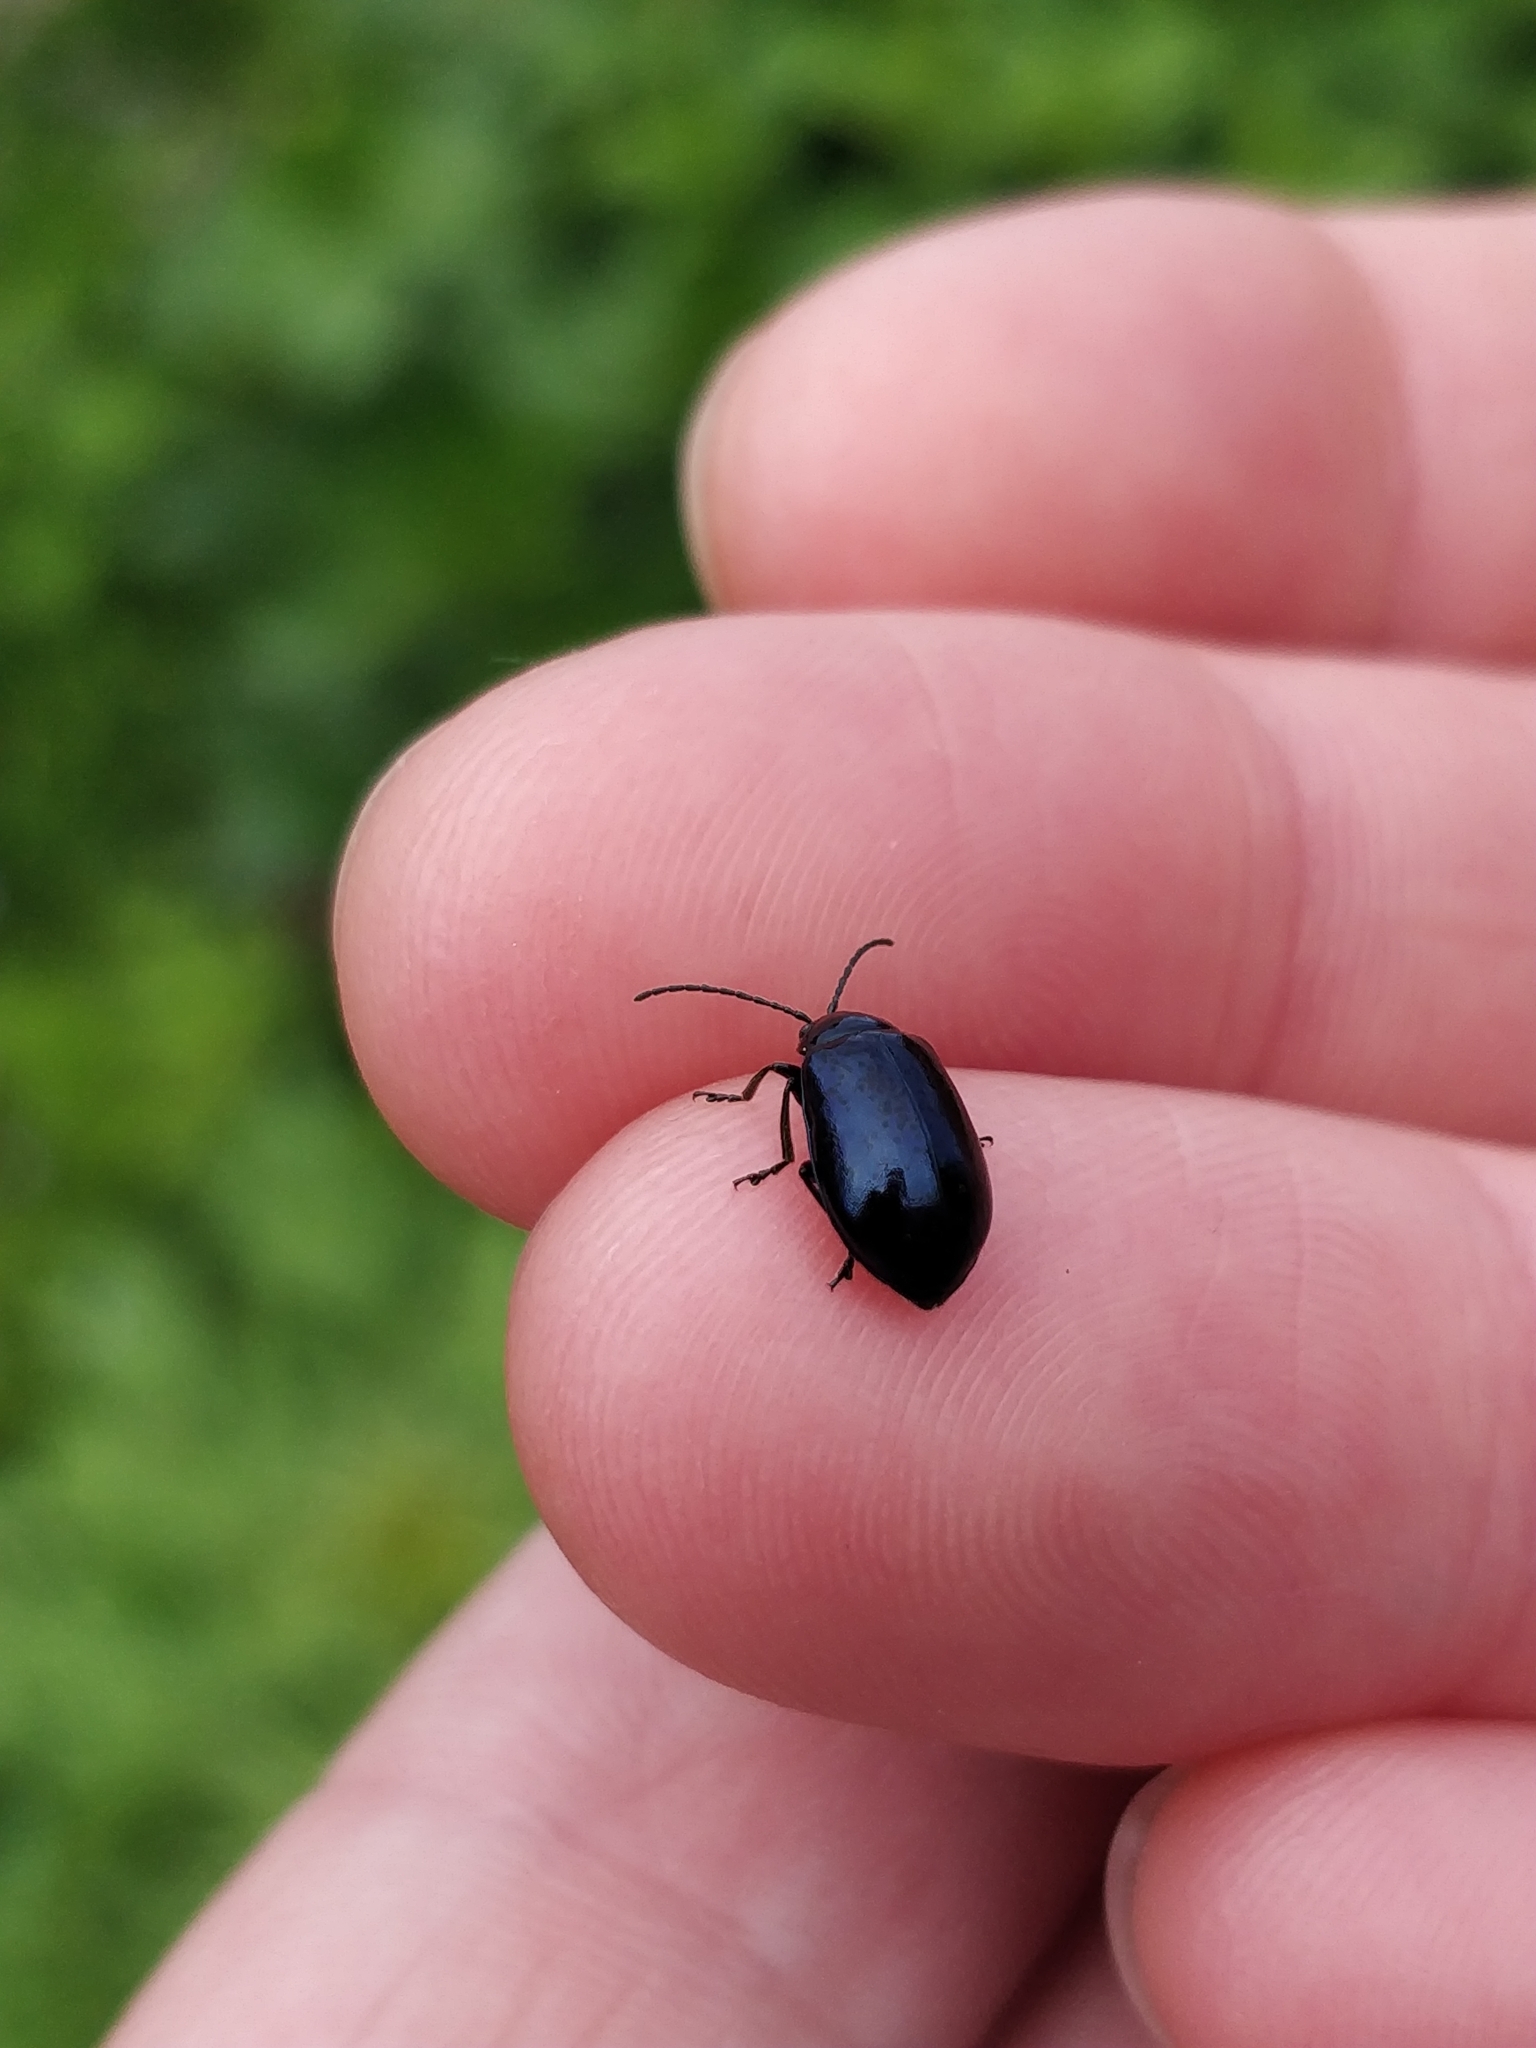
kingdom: Animalia
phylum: Arthropoda
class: Insecta
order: Coleoptera
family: Chrysomelidae
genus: Agelastica
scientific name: Agelastica alni
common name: Alder leaf beetle
